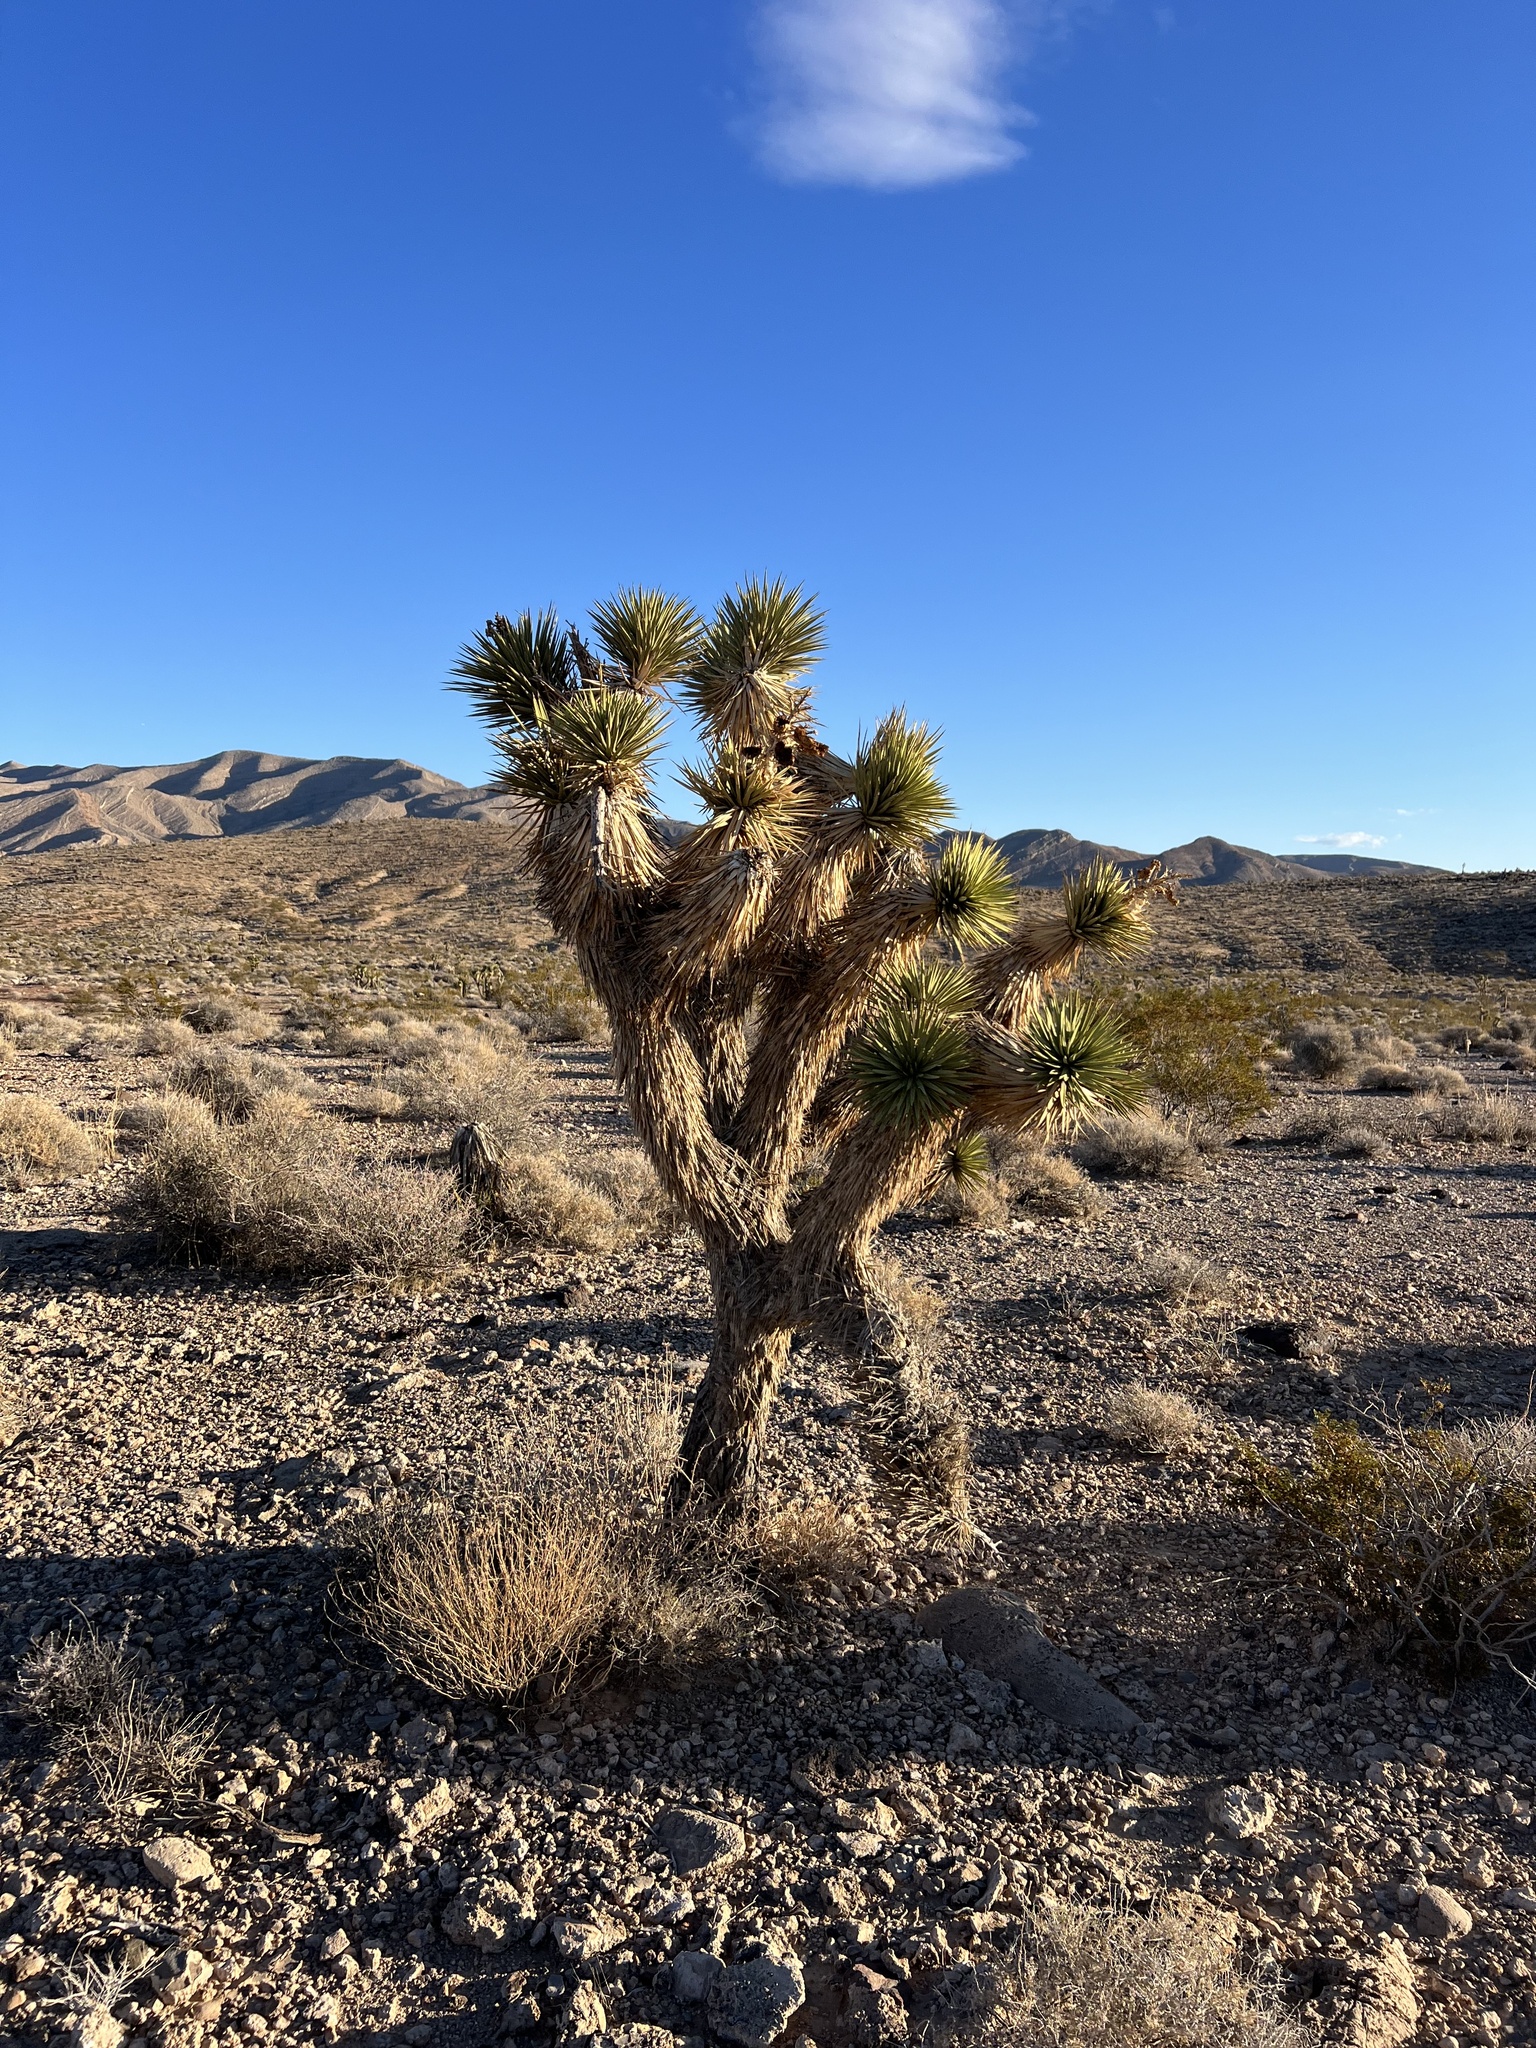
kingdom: Plantae
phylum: Tracheophyta
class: Liliopsida
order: Asparagales
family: Asparagaceae
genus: Yucca
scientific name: Yucca brevifolia
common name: Joshua tree
